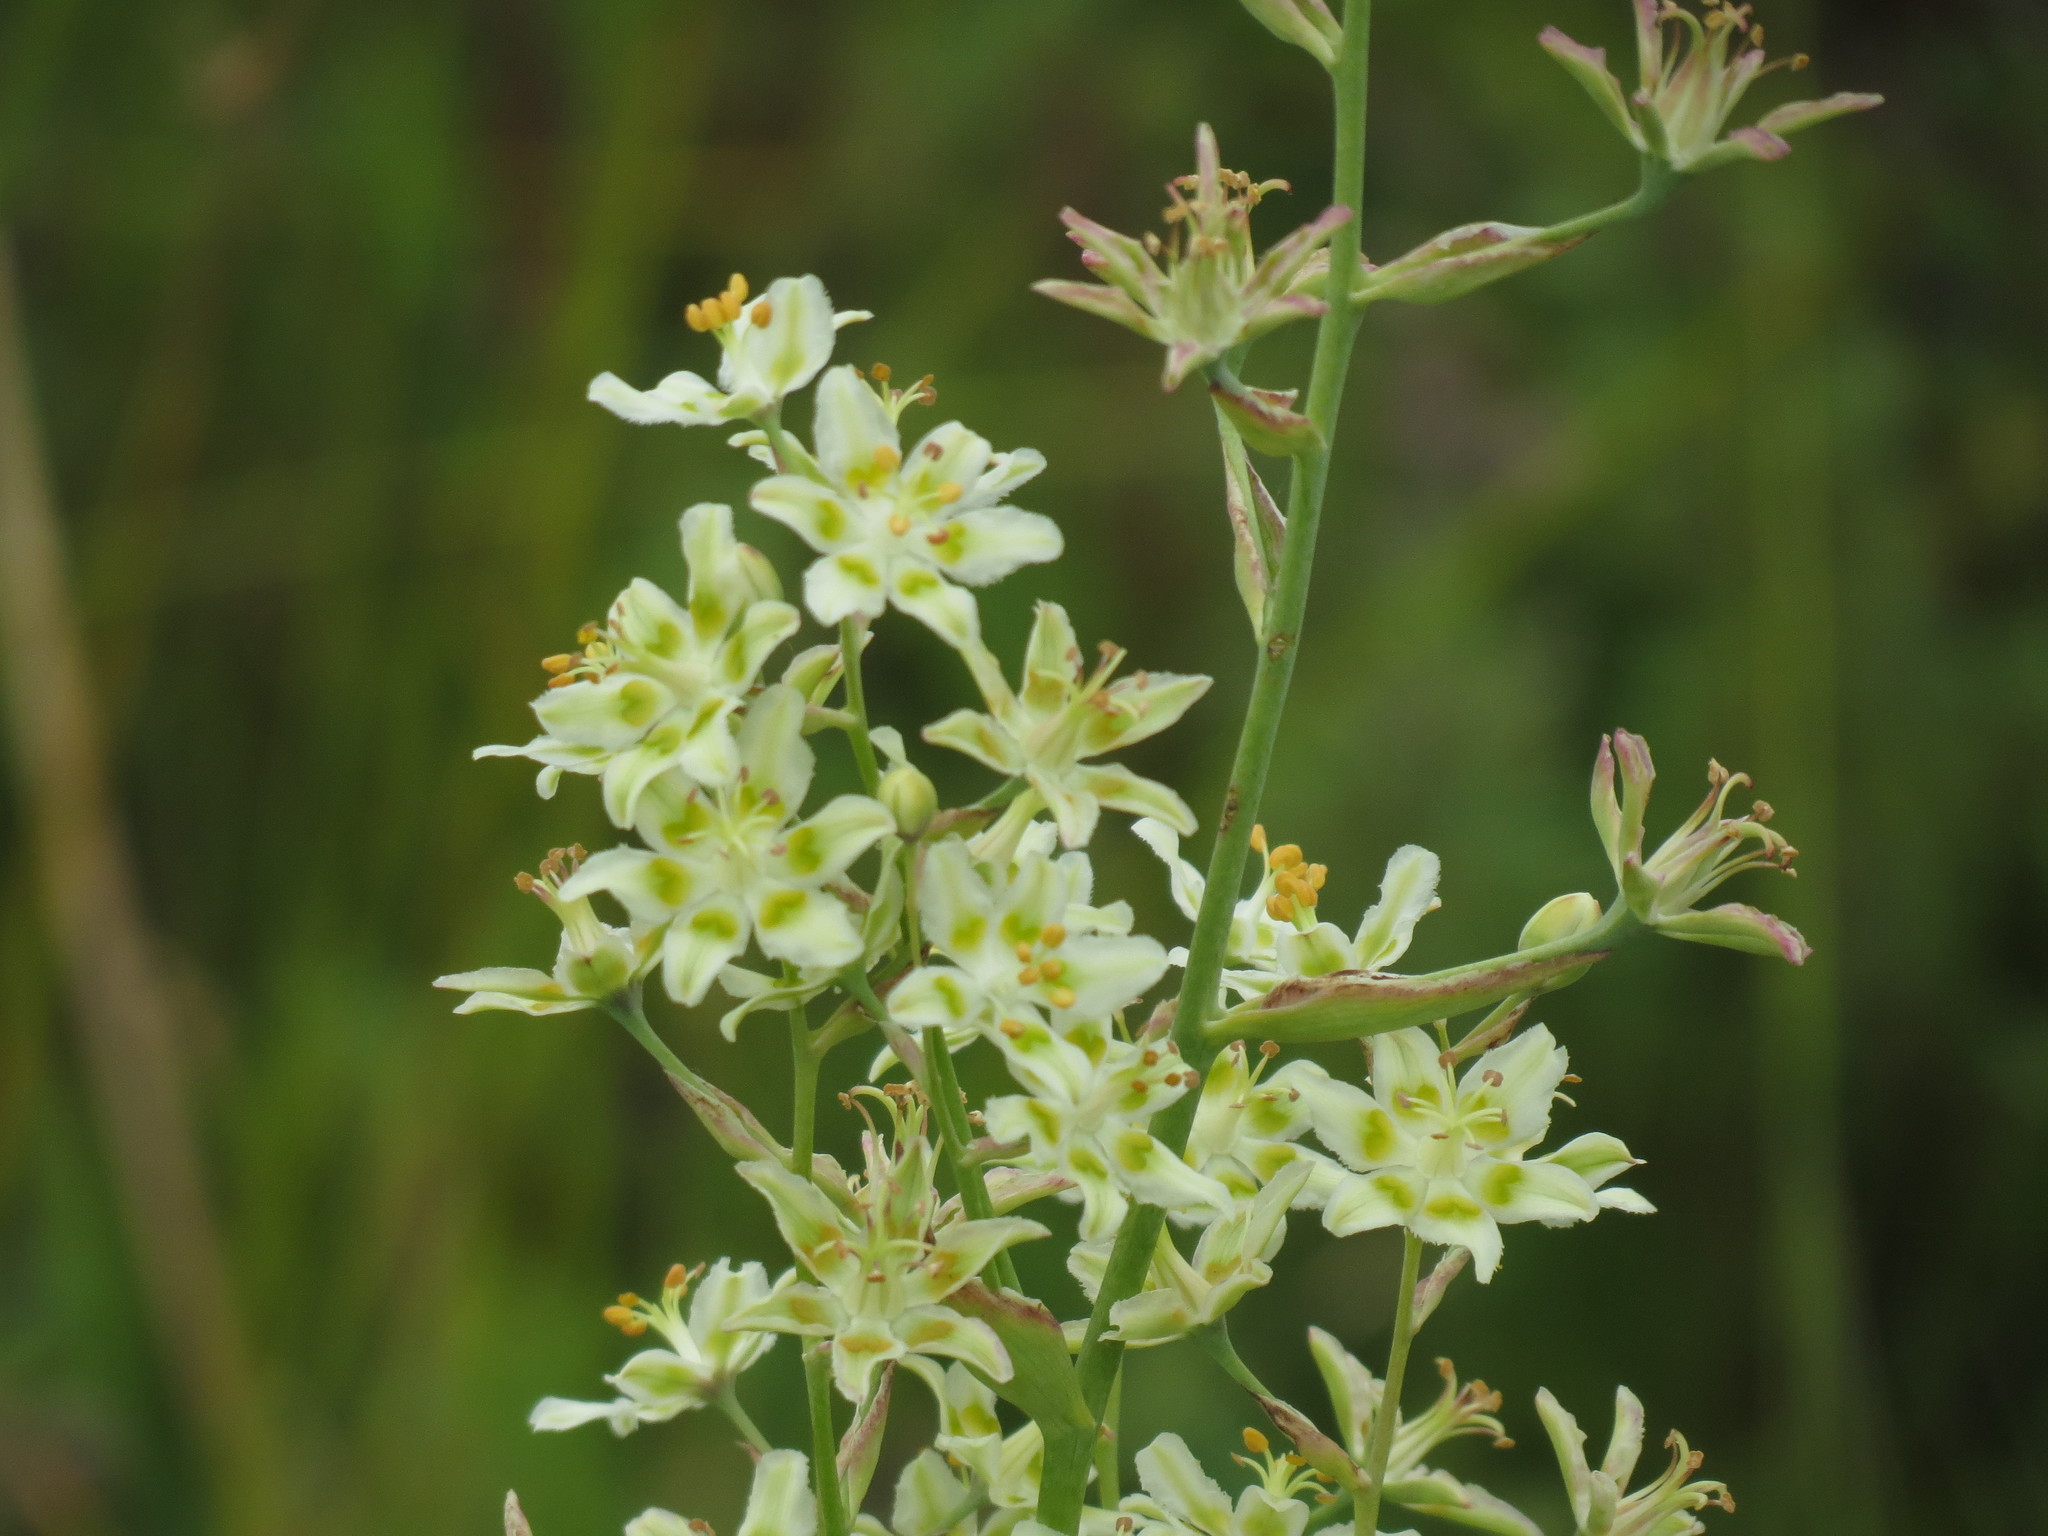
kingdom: Plantae
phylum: Tracheophyta
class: Liliopsida
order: Liliales
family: Melanthiaceae
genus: Anticlea
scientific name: Anticlea elegans
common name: Mountain death camas
